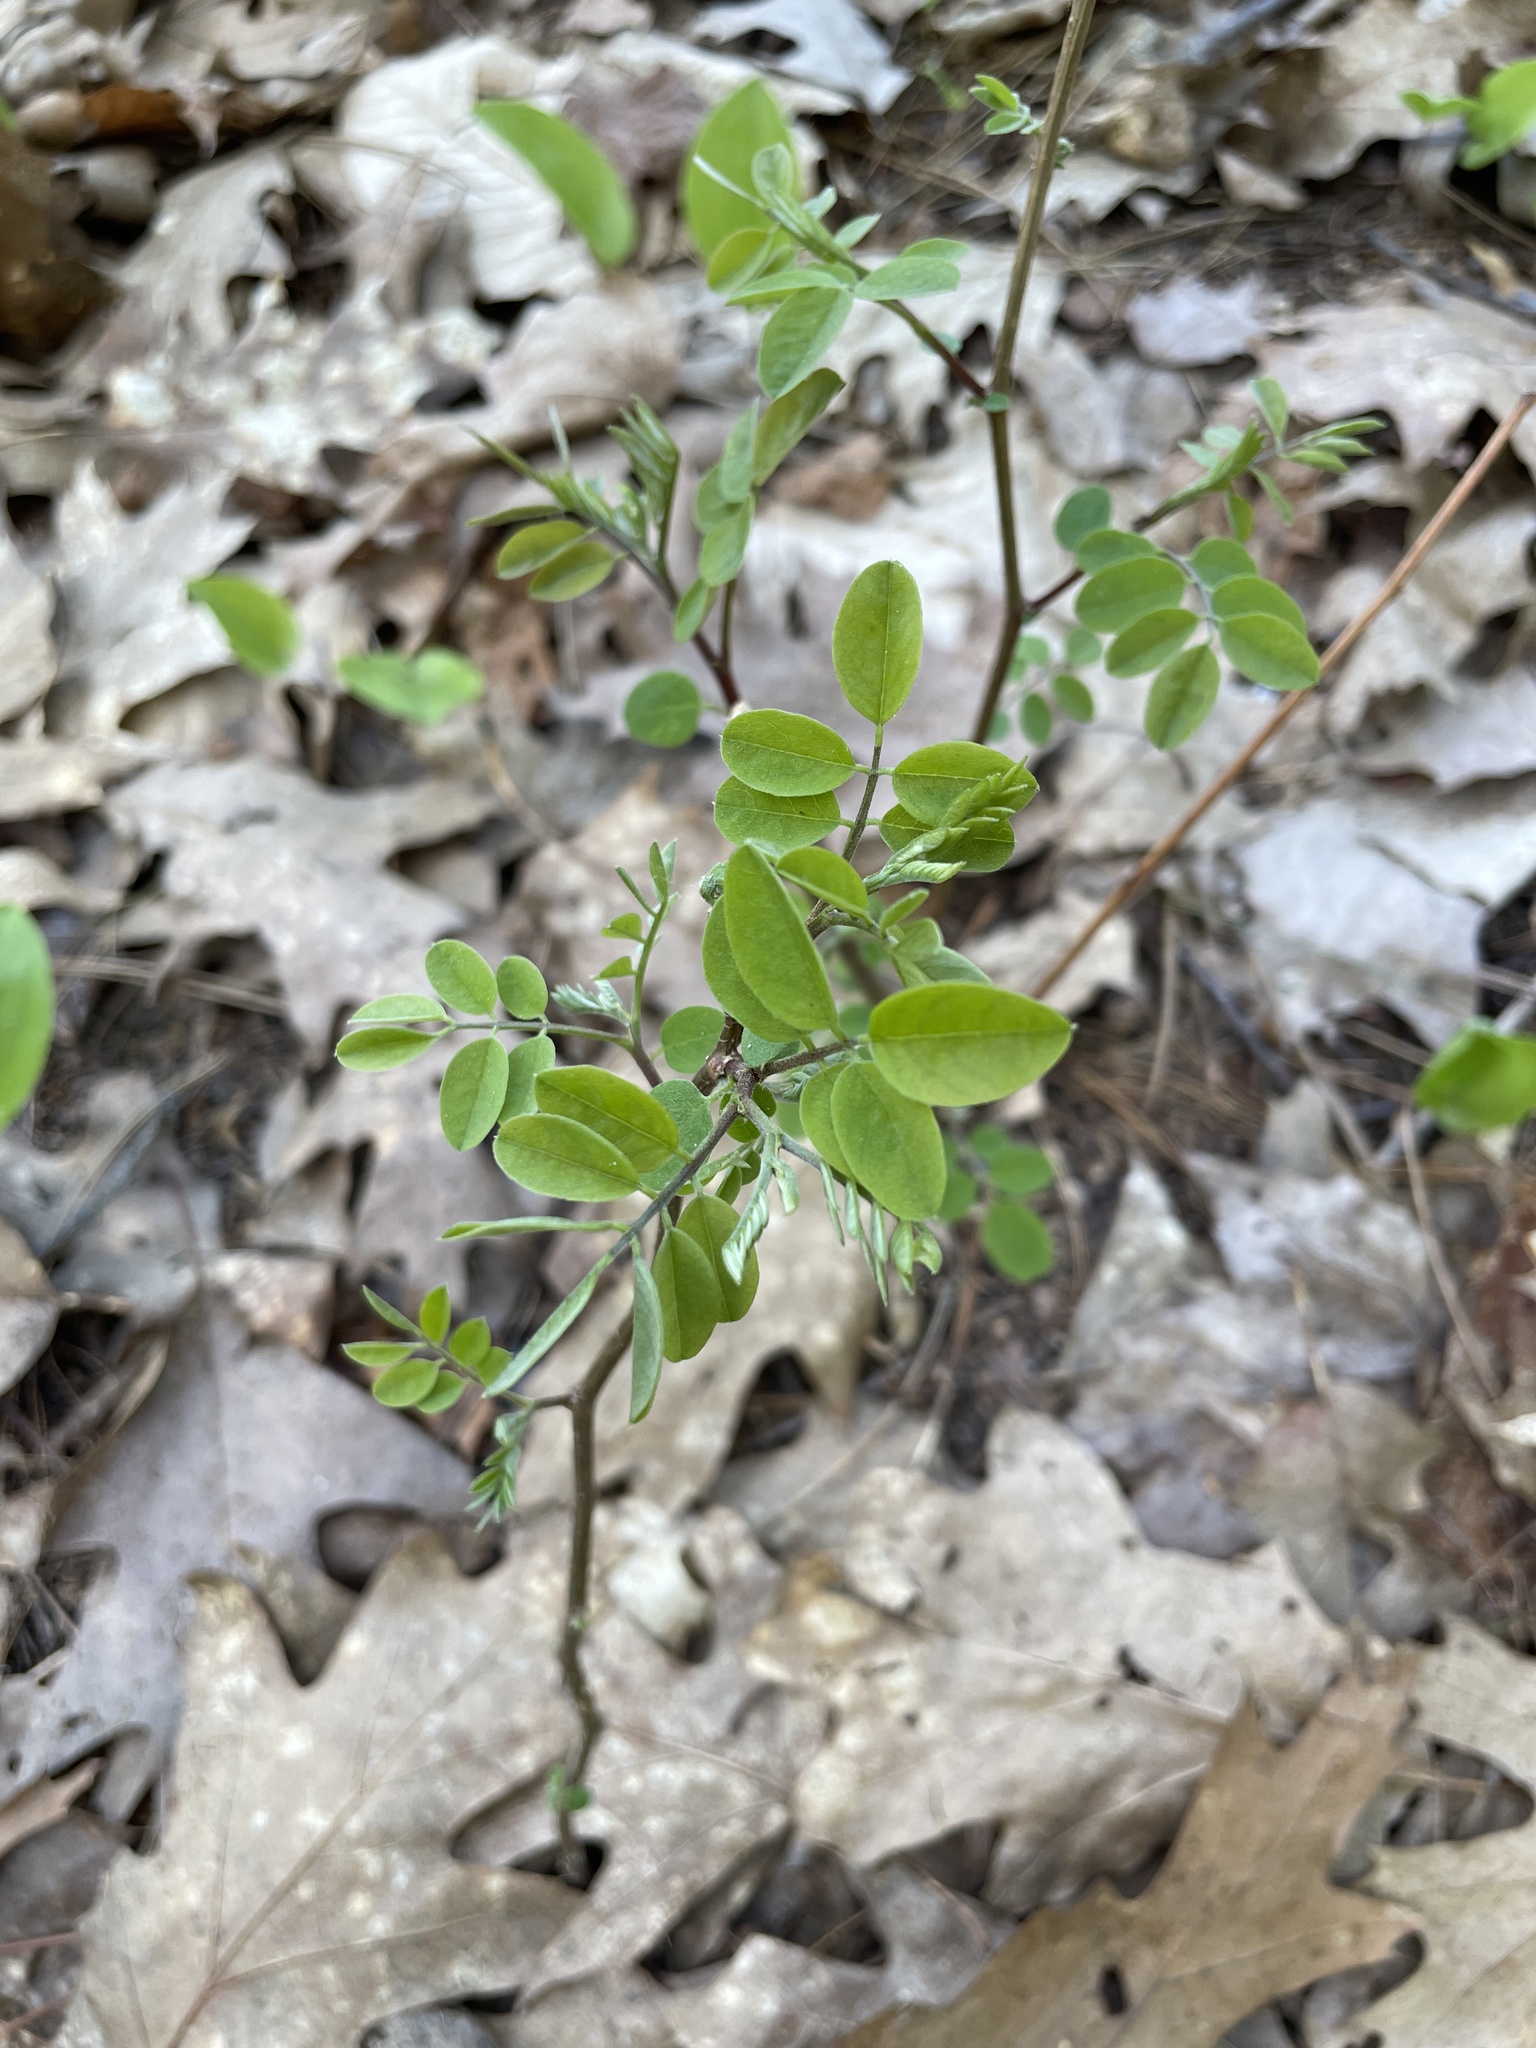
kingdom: Plantae
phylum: Tracheophyta
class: Magnoliopsida
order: Fabales
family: Fabaceae
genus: Robinia
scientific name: Robinia pseudoacacia
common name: Black locust
